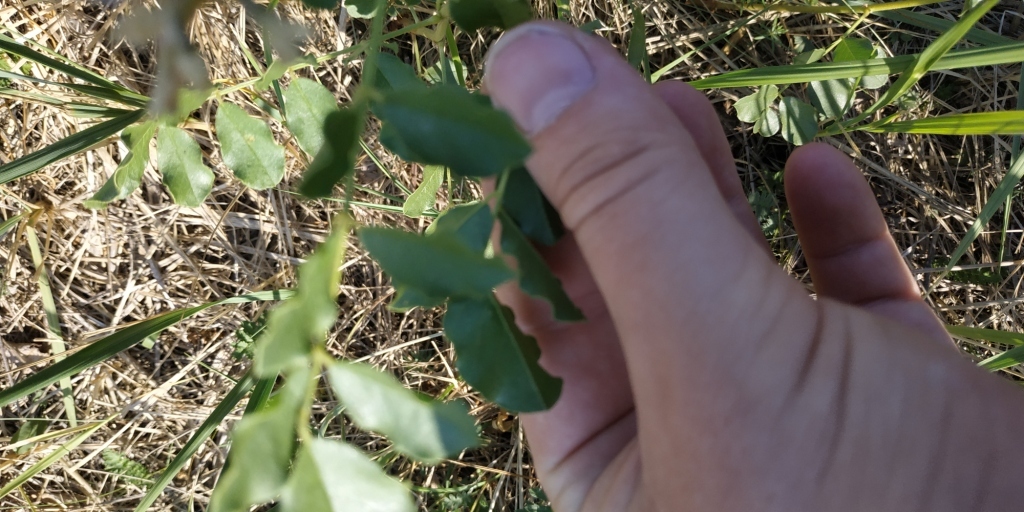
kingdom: Plantae
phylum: Tracheophyta
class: Magnoliopsida
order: Fabales
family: Fabaceae
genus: Glycyrrhiza
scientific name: Glycyrrhiza uralensis
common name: Chinese licorice
